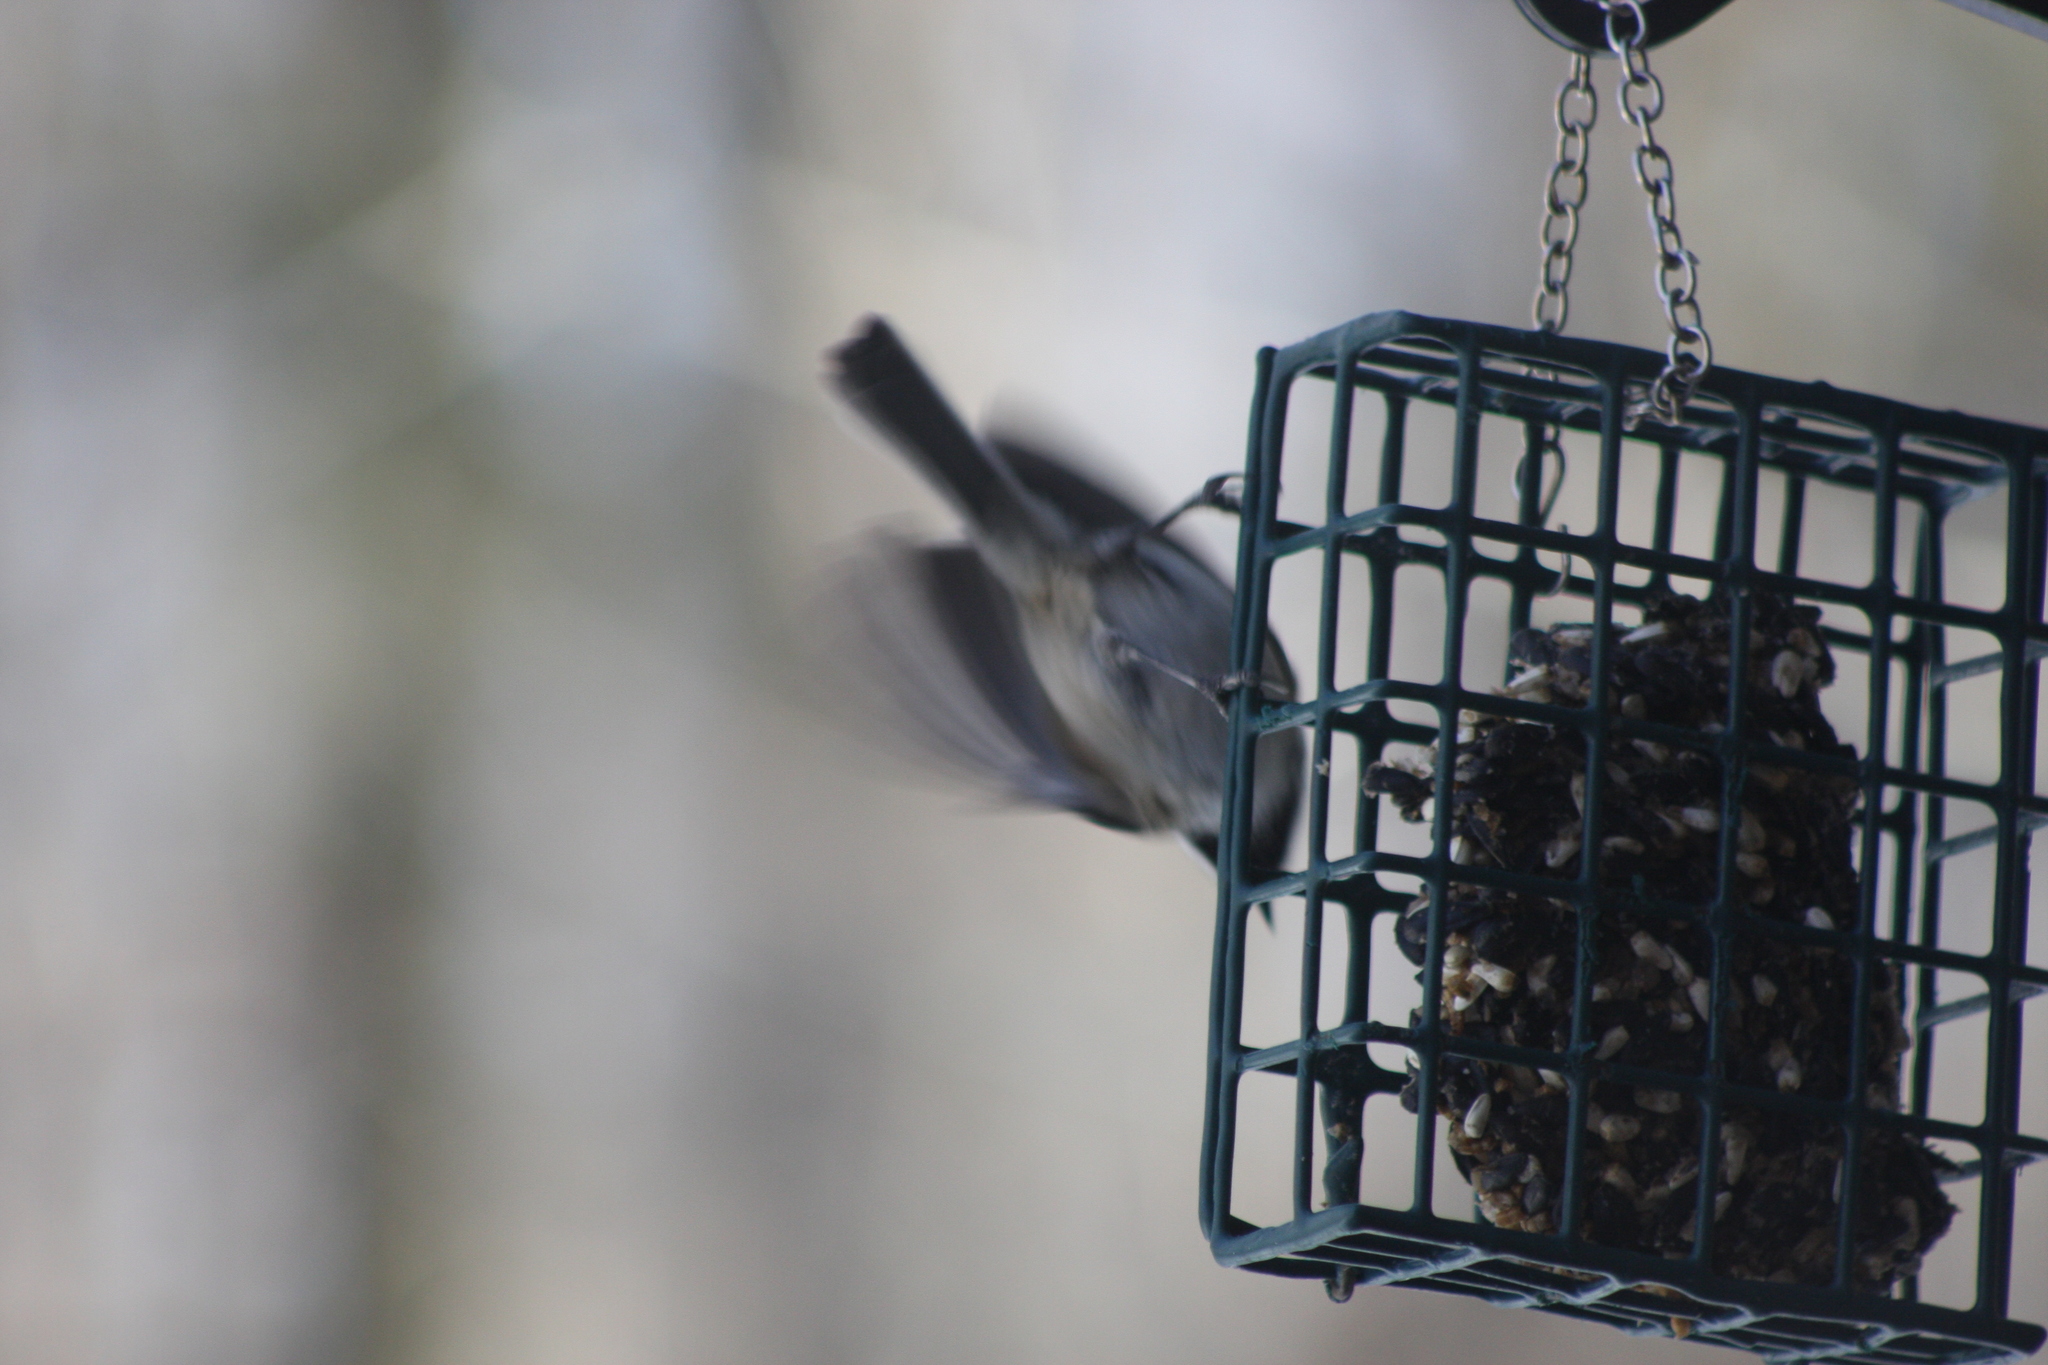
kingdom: Animalia
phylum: Chordata
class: Aves
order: Passeriformes
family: Paridae
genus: Poecile
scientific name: Poecile atricapillus
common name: Black-capped chickadee
